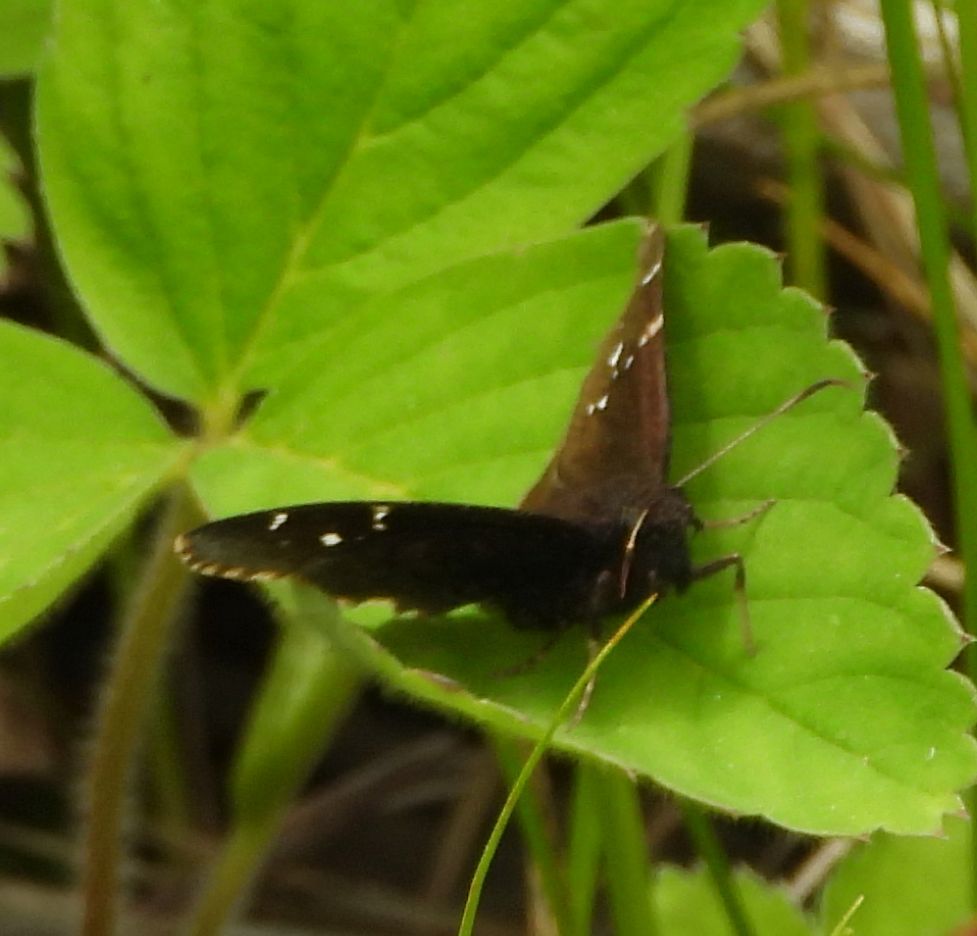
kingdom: Animalia
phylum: Arthropoda
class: Insecta
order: Lepidoptera
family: Hesperiidae
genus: Thorybes
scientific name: Thorybes pylades
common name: Northern cloudywing
